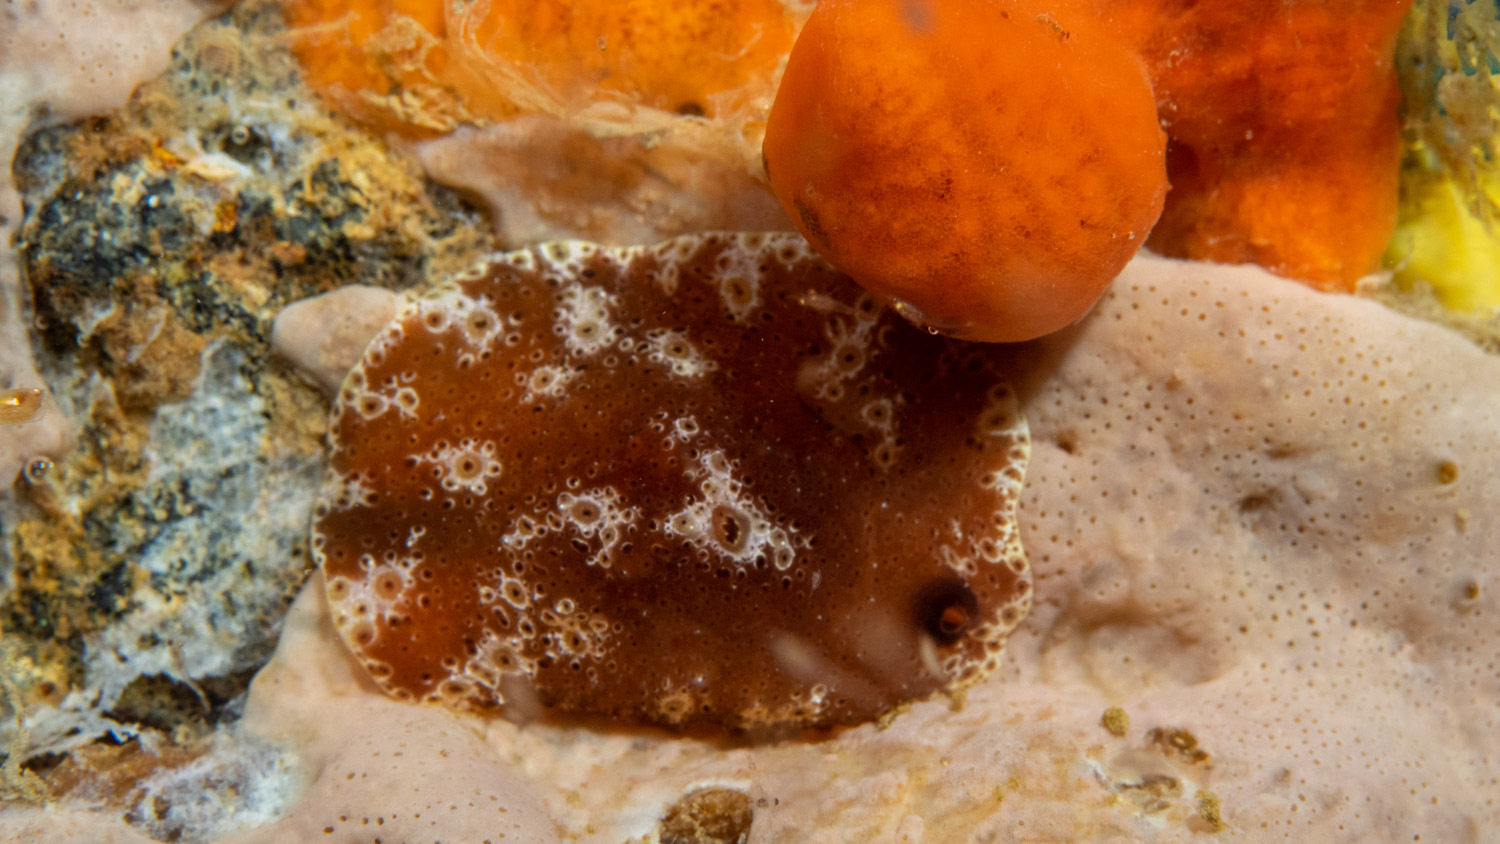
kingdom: Animalia
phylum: Mollusca
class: Gastropoda
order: Littorinimorpha
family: Velutinidae
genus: Djiboutia
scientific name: Djiboutia australis
